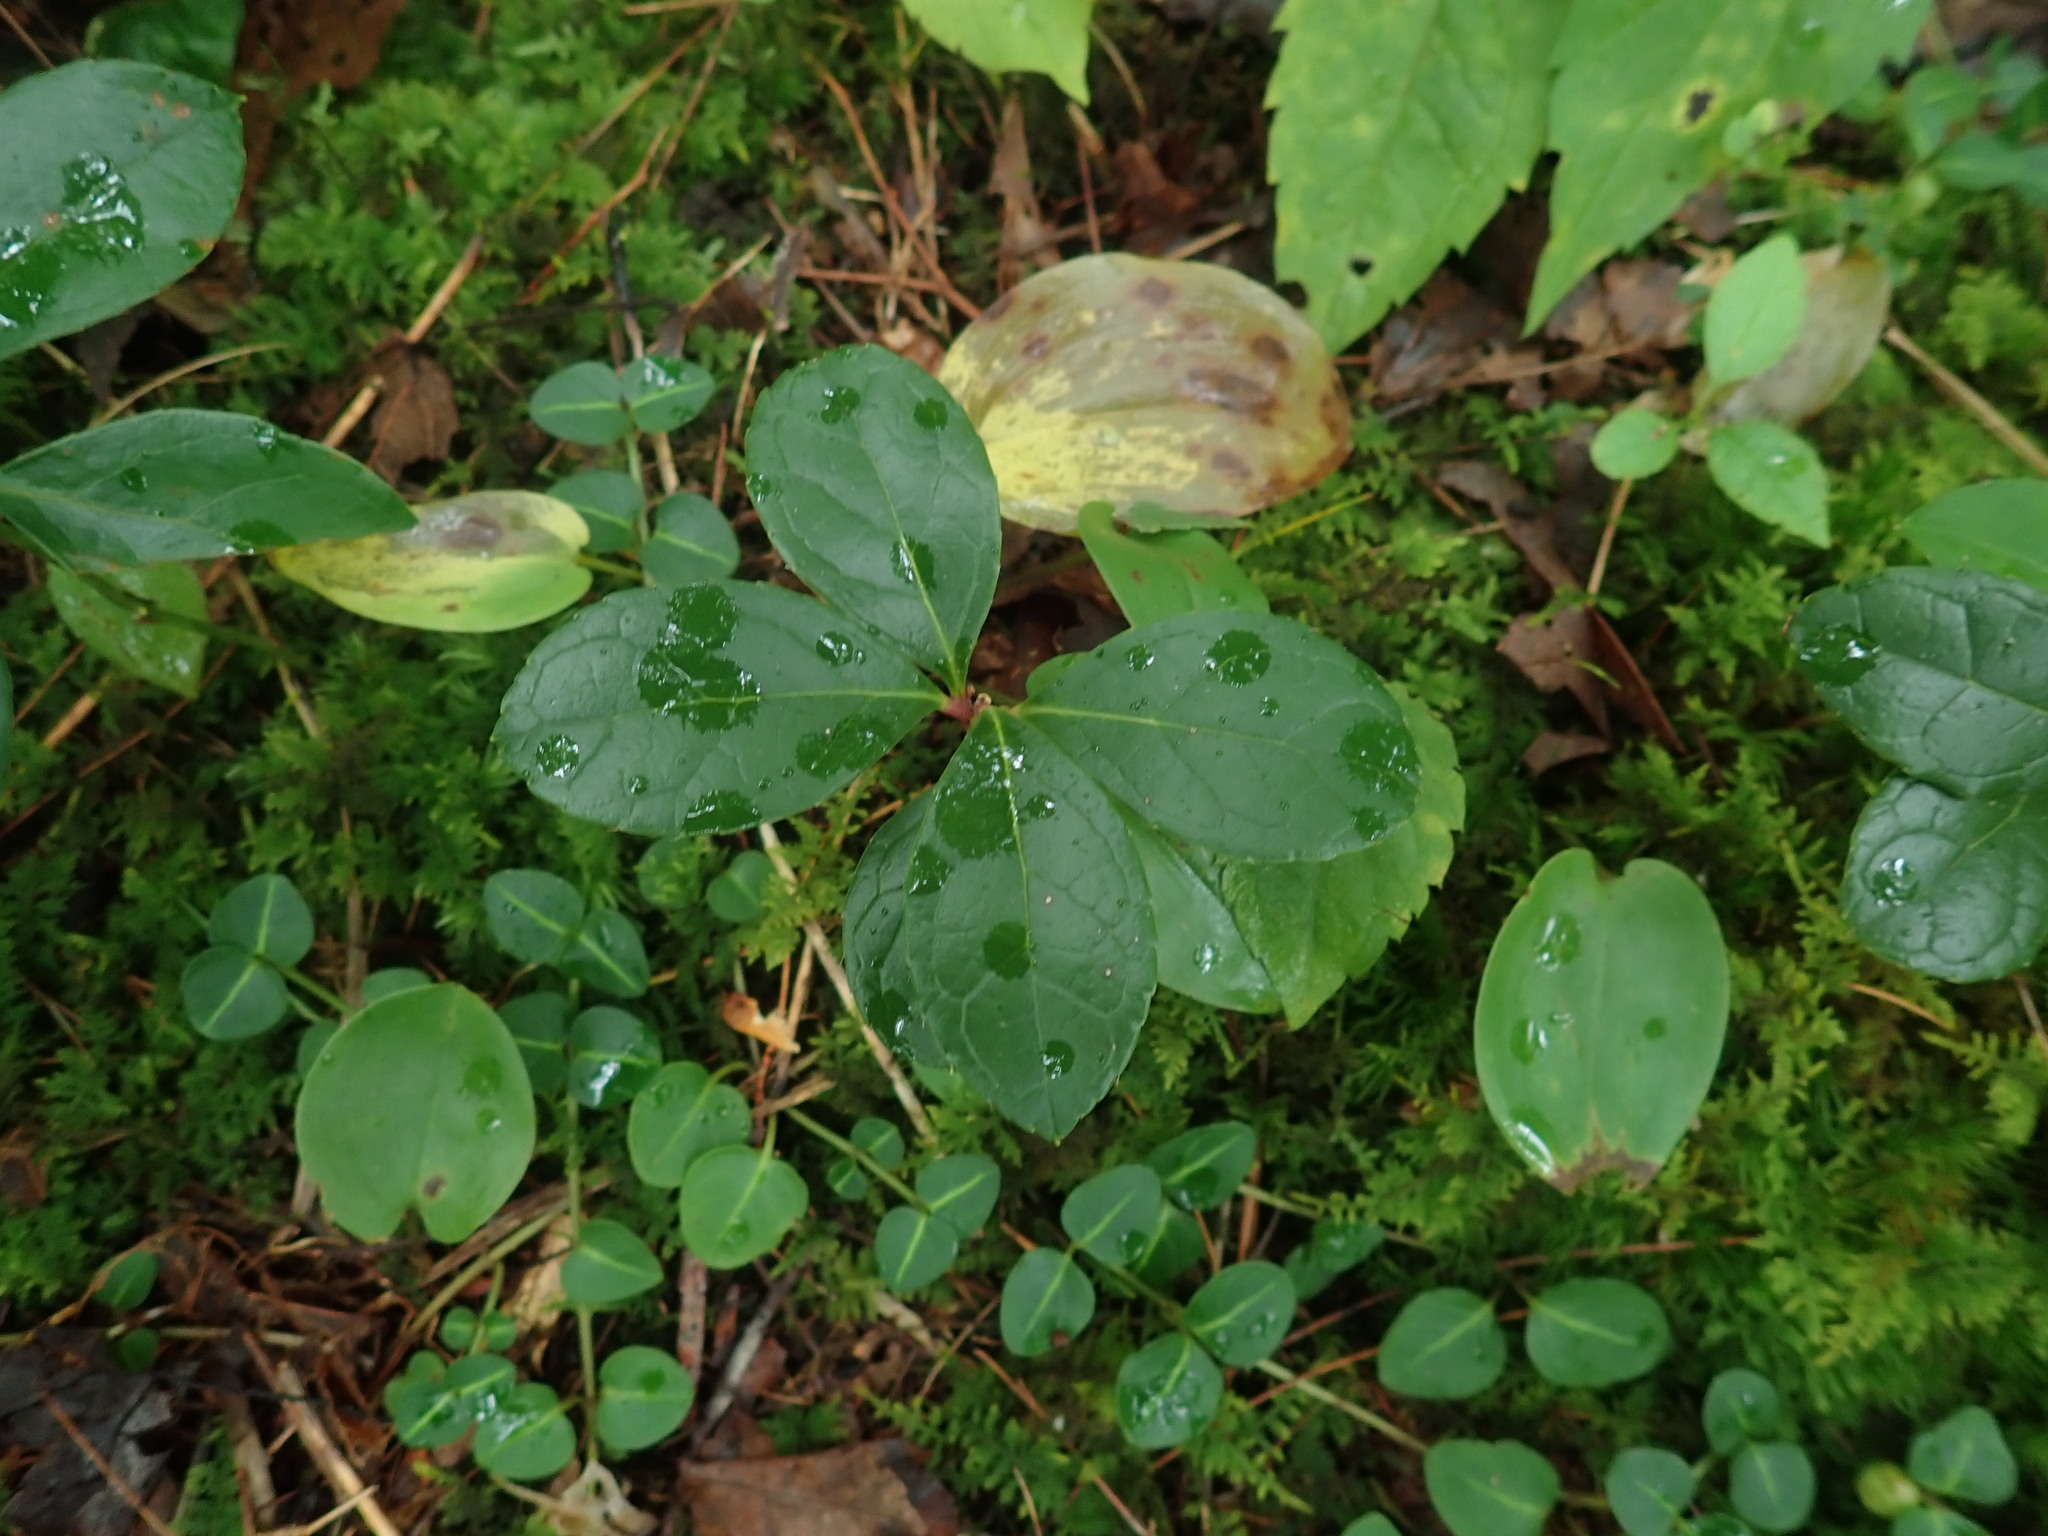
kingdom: Plantae
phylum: Tracheophyta
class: Magnoliopsida
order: Ericales
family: Ericaceae
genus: Gaultheria
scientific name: Gaultheria procumbens
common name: Checkerberry
